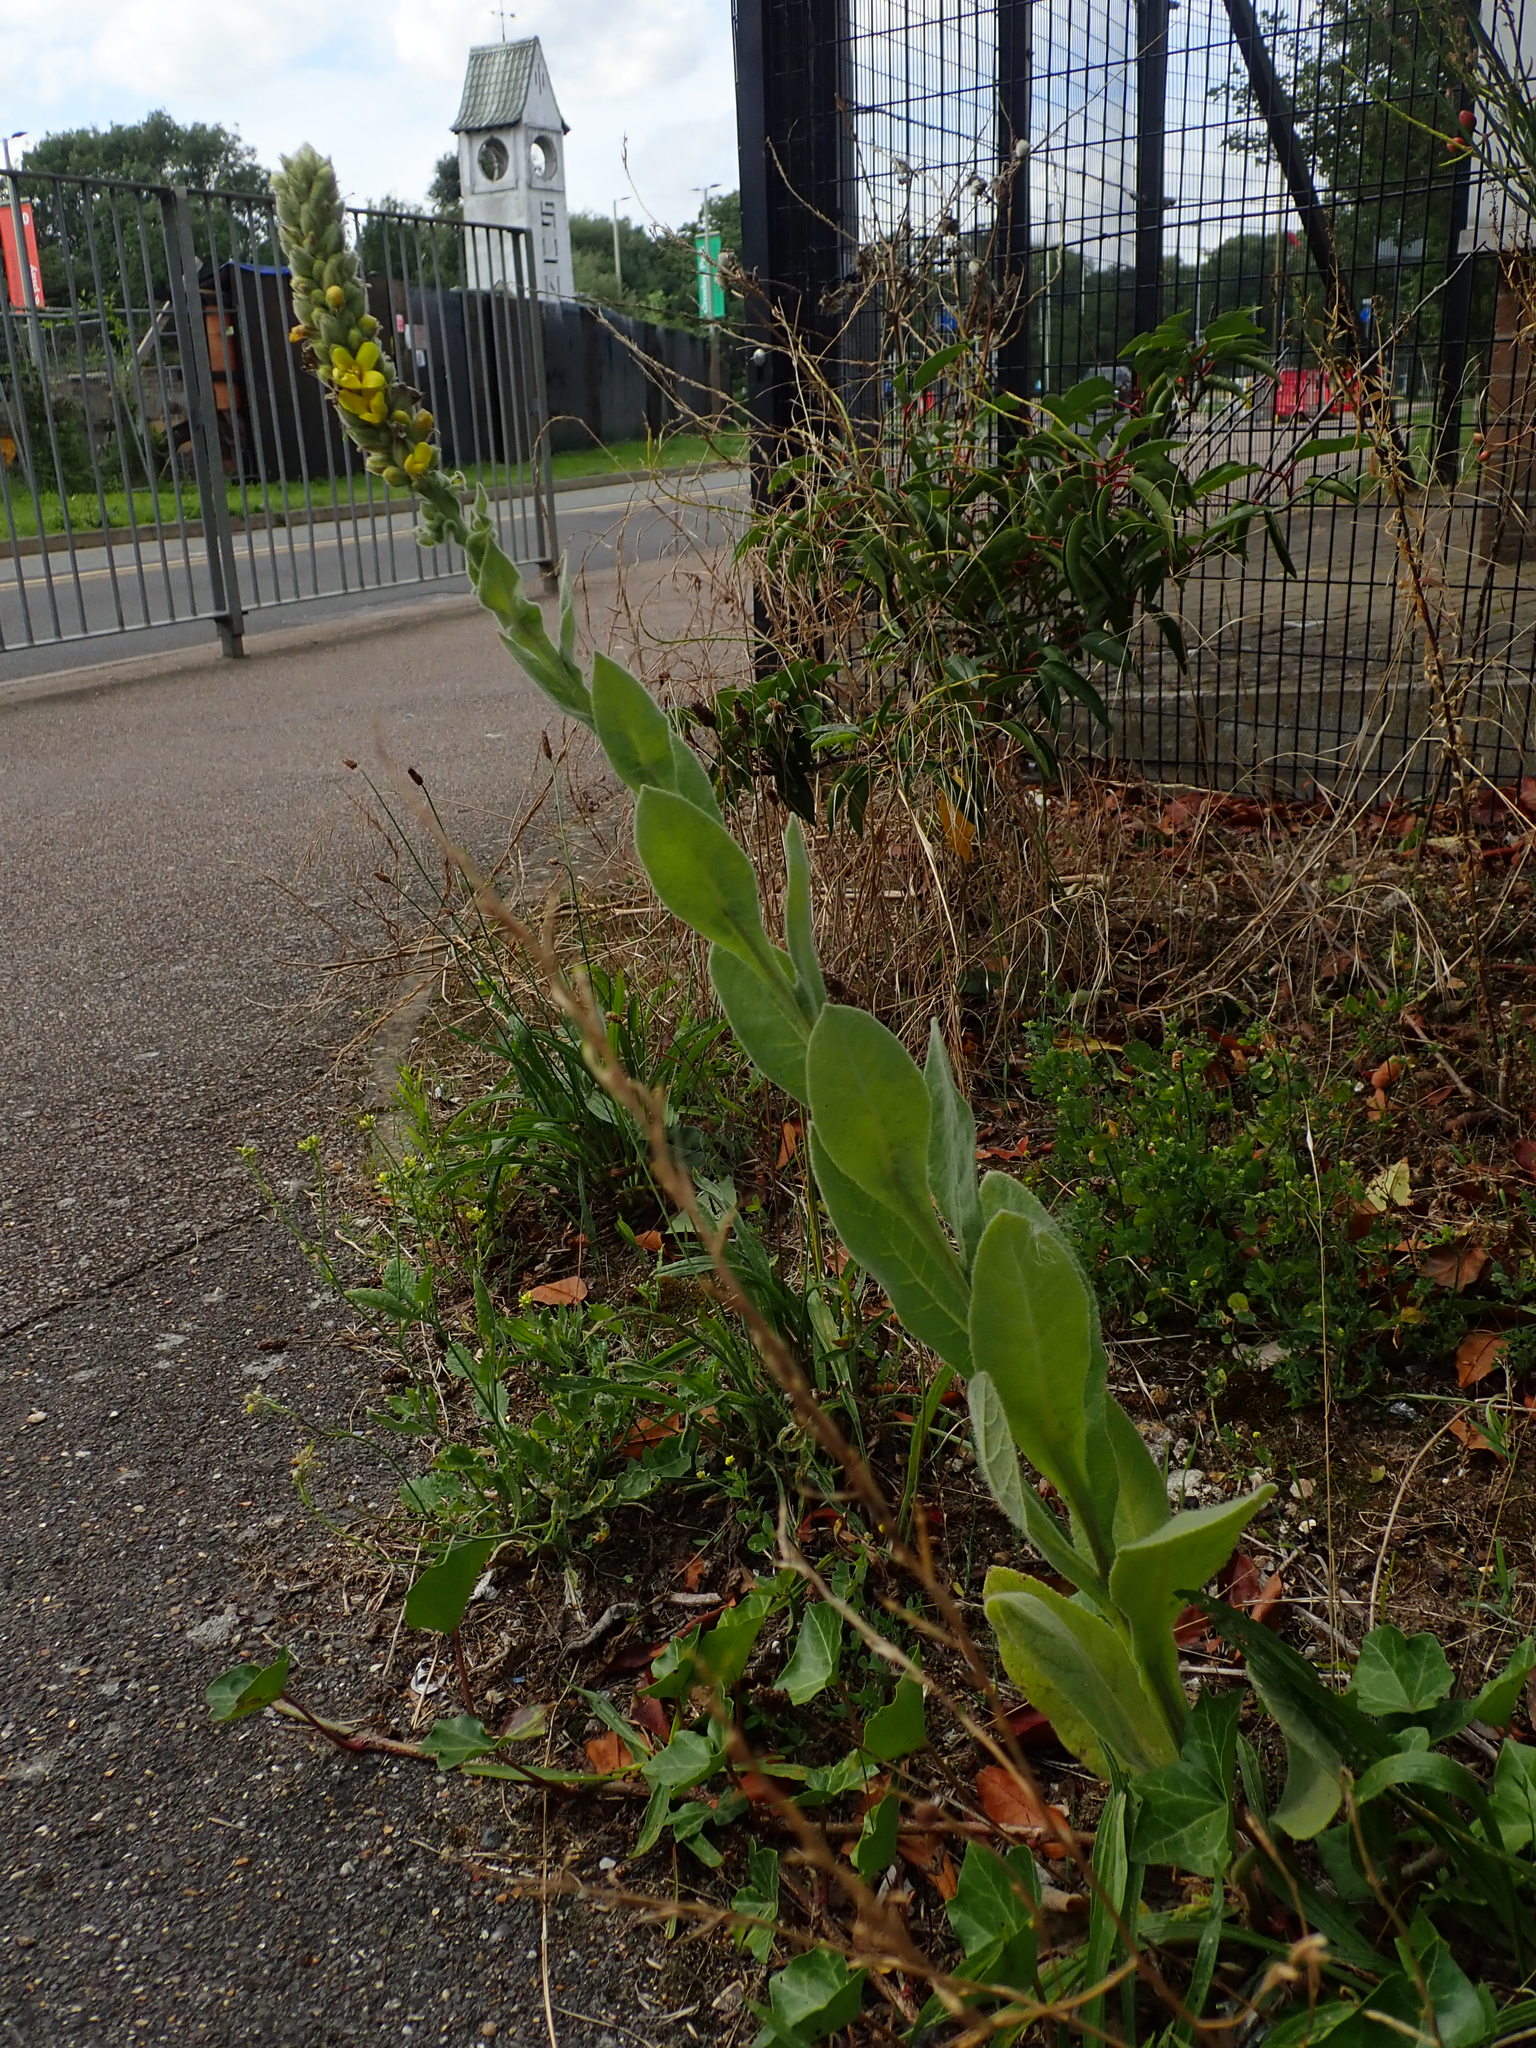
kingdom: Plantae
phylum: Tracheophyta
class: Magnoliopsida
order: Lamiales
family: Scrophulariaceae
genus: Verbascum
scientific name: Verbascum thapsus
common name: Common mullein
